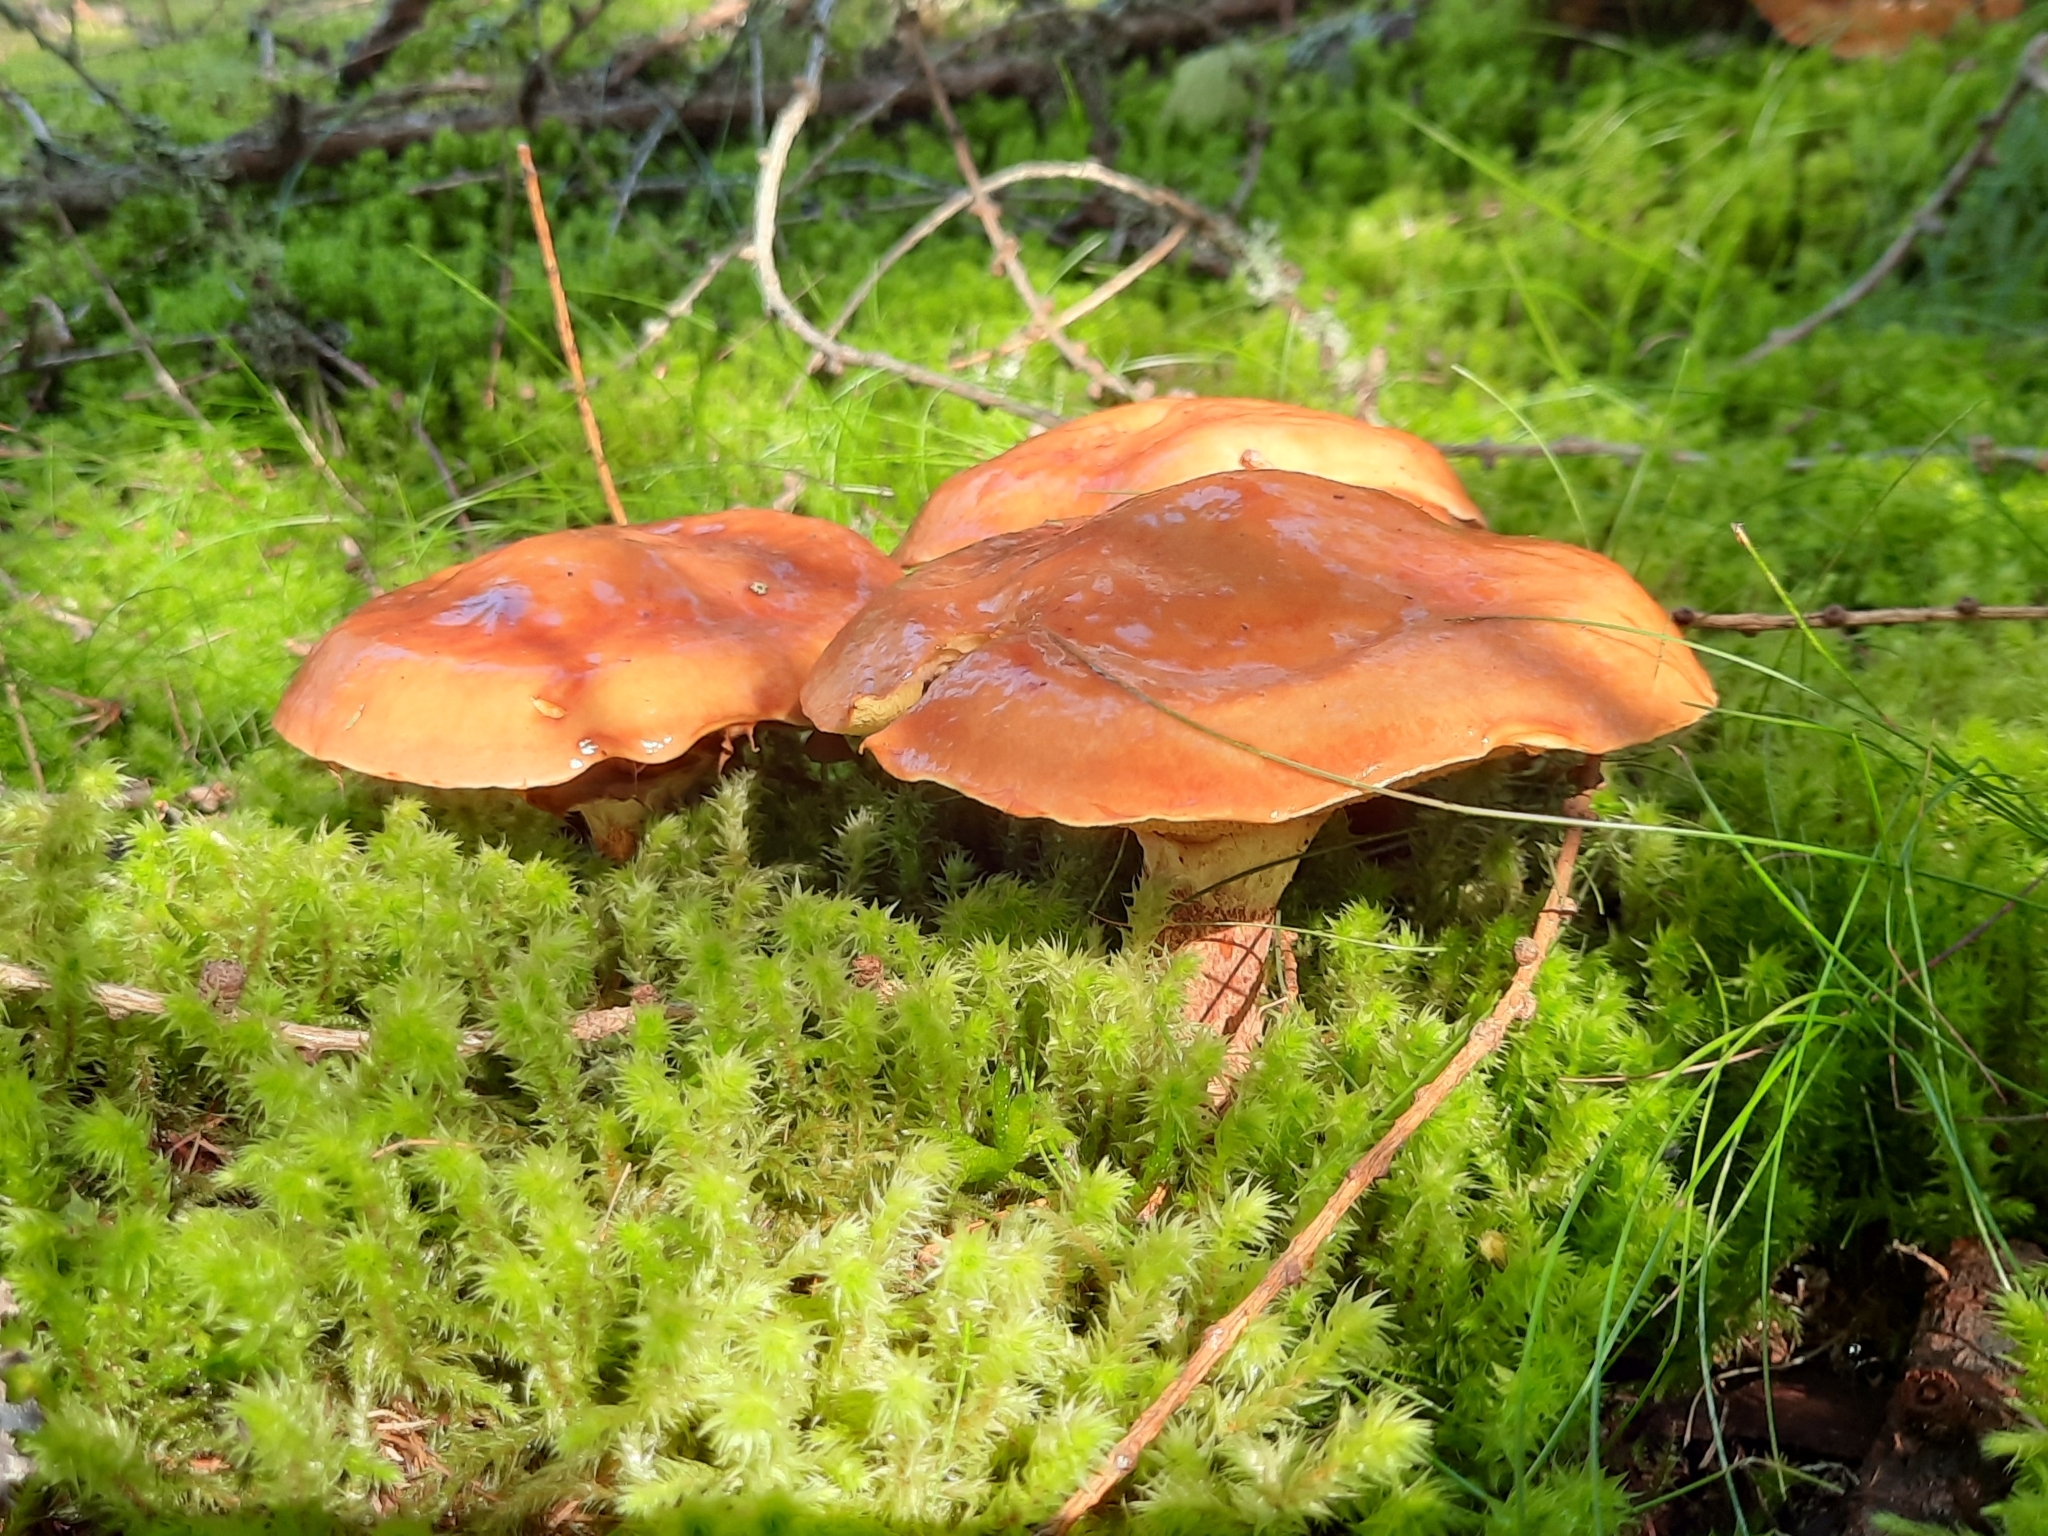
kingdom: Fungi
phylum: Basidiomycota
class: Agaricomycetes
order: Boletales
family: Suillaceae
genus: Suillus
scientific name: Suillus grevillei
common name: Larch bolete
